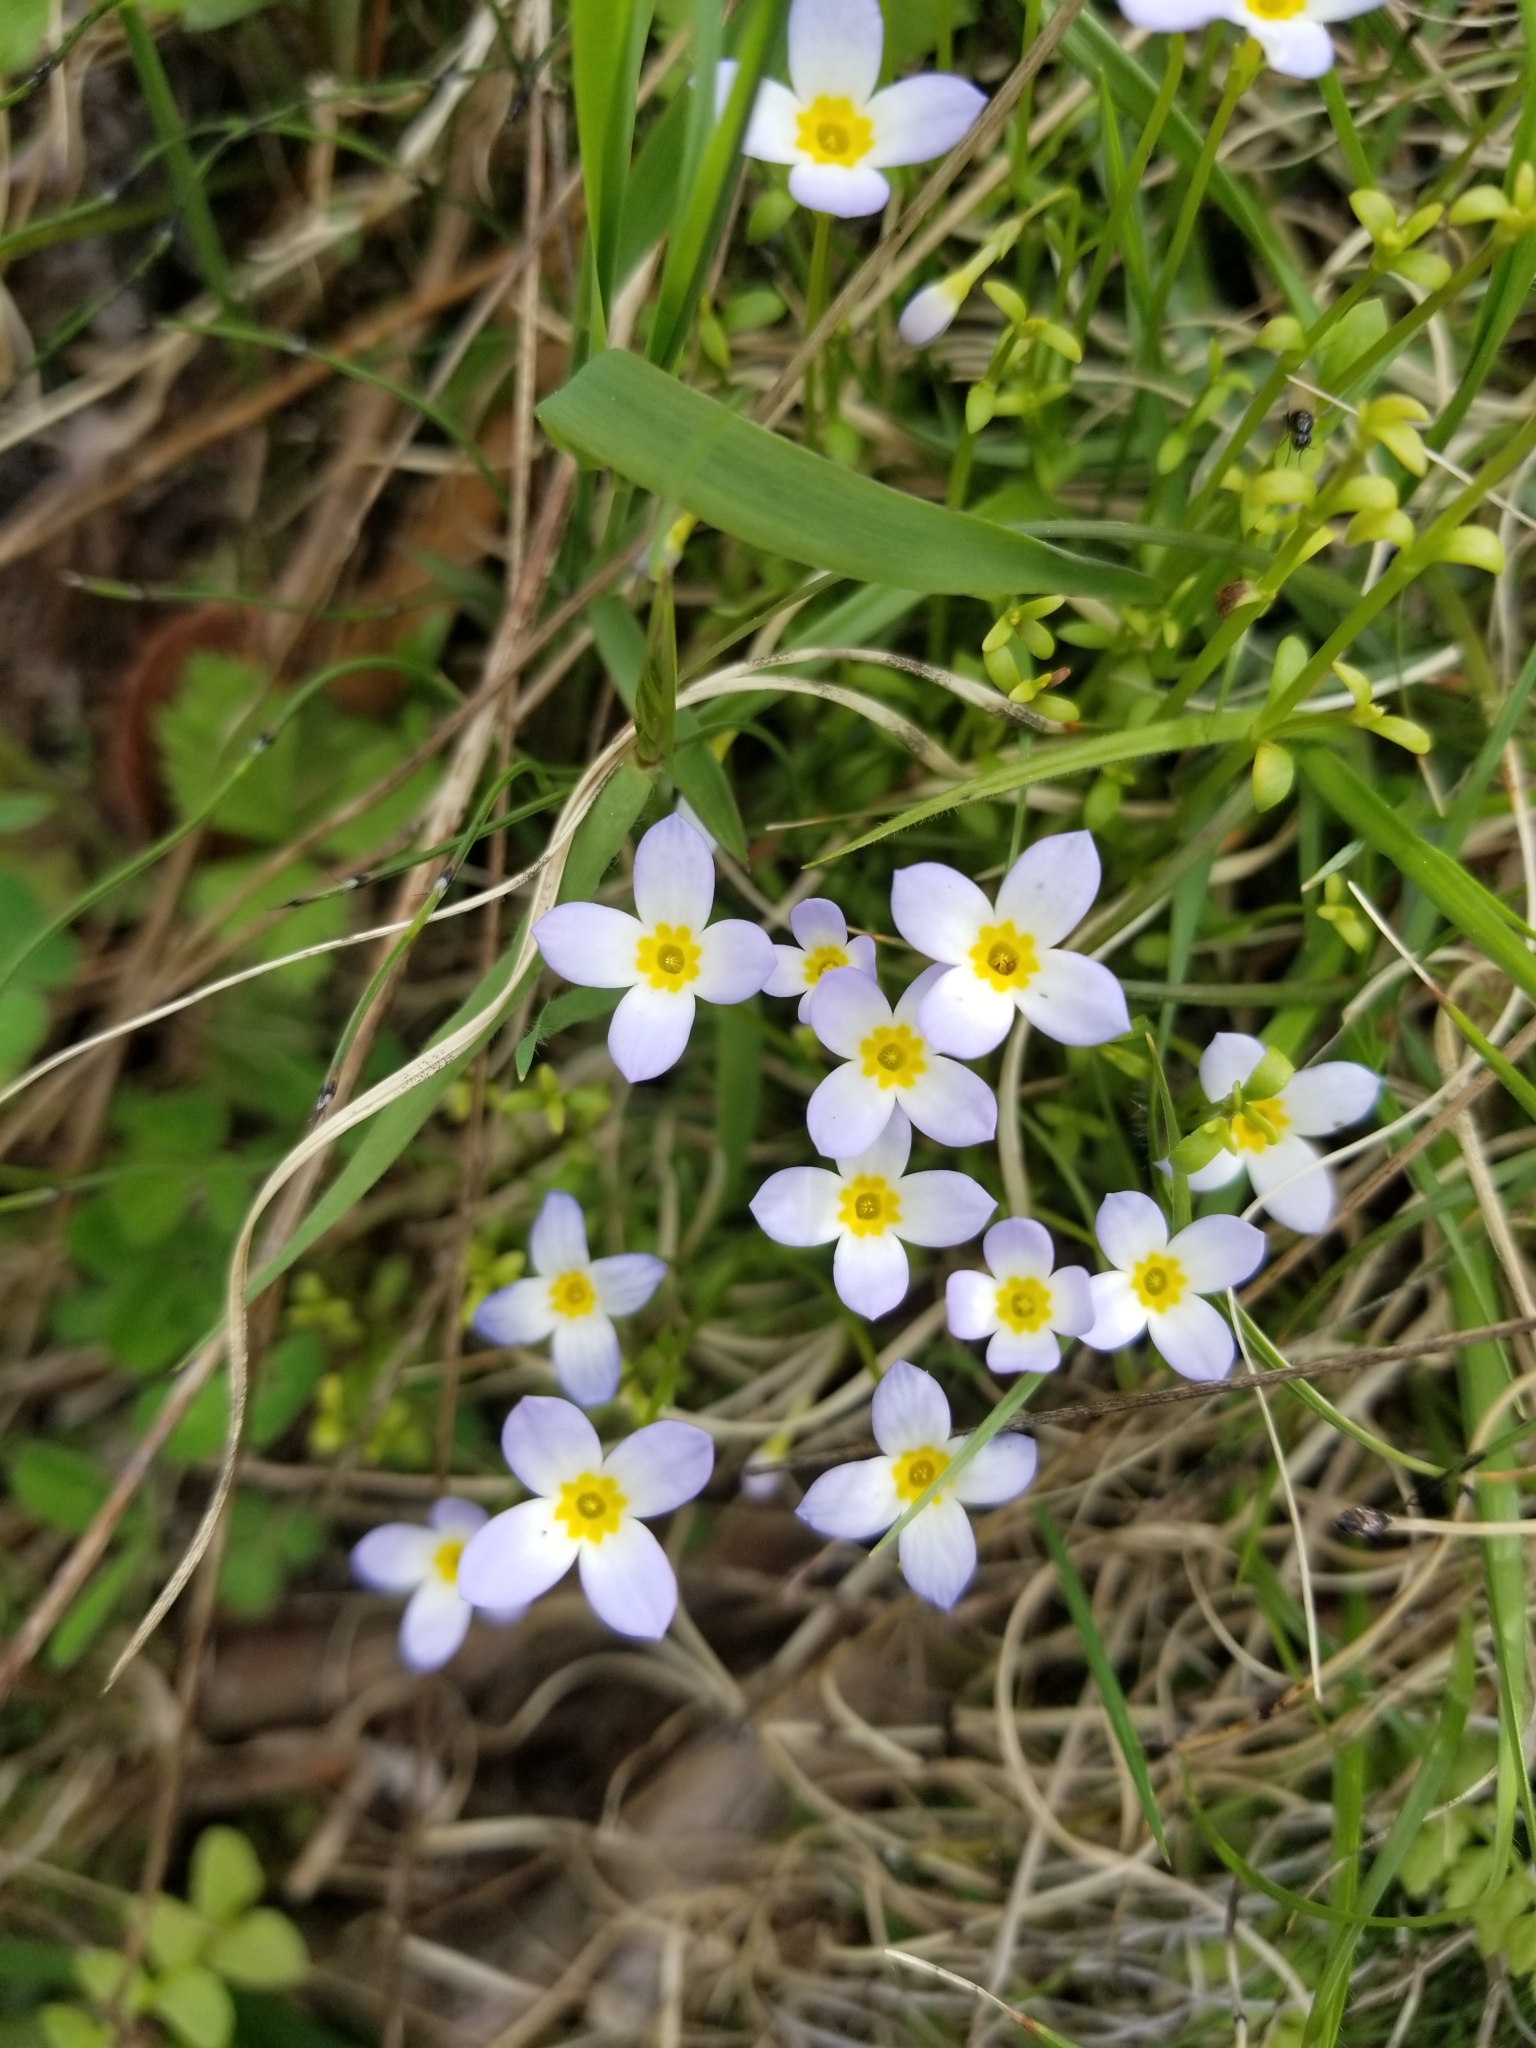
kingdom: Plantae
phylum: Tracheophyta
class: Magnoliopsida
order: Gentianales
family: Rubiaceae
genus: Houstonia
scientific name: Houstonia caerulea
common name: Bluets
